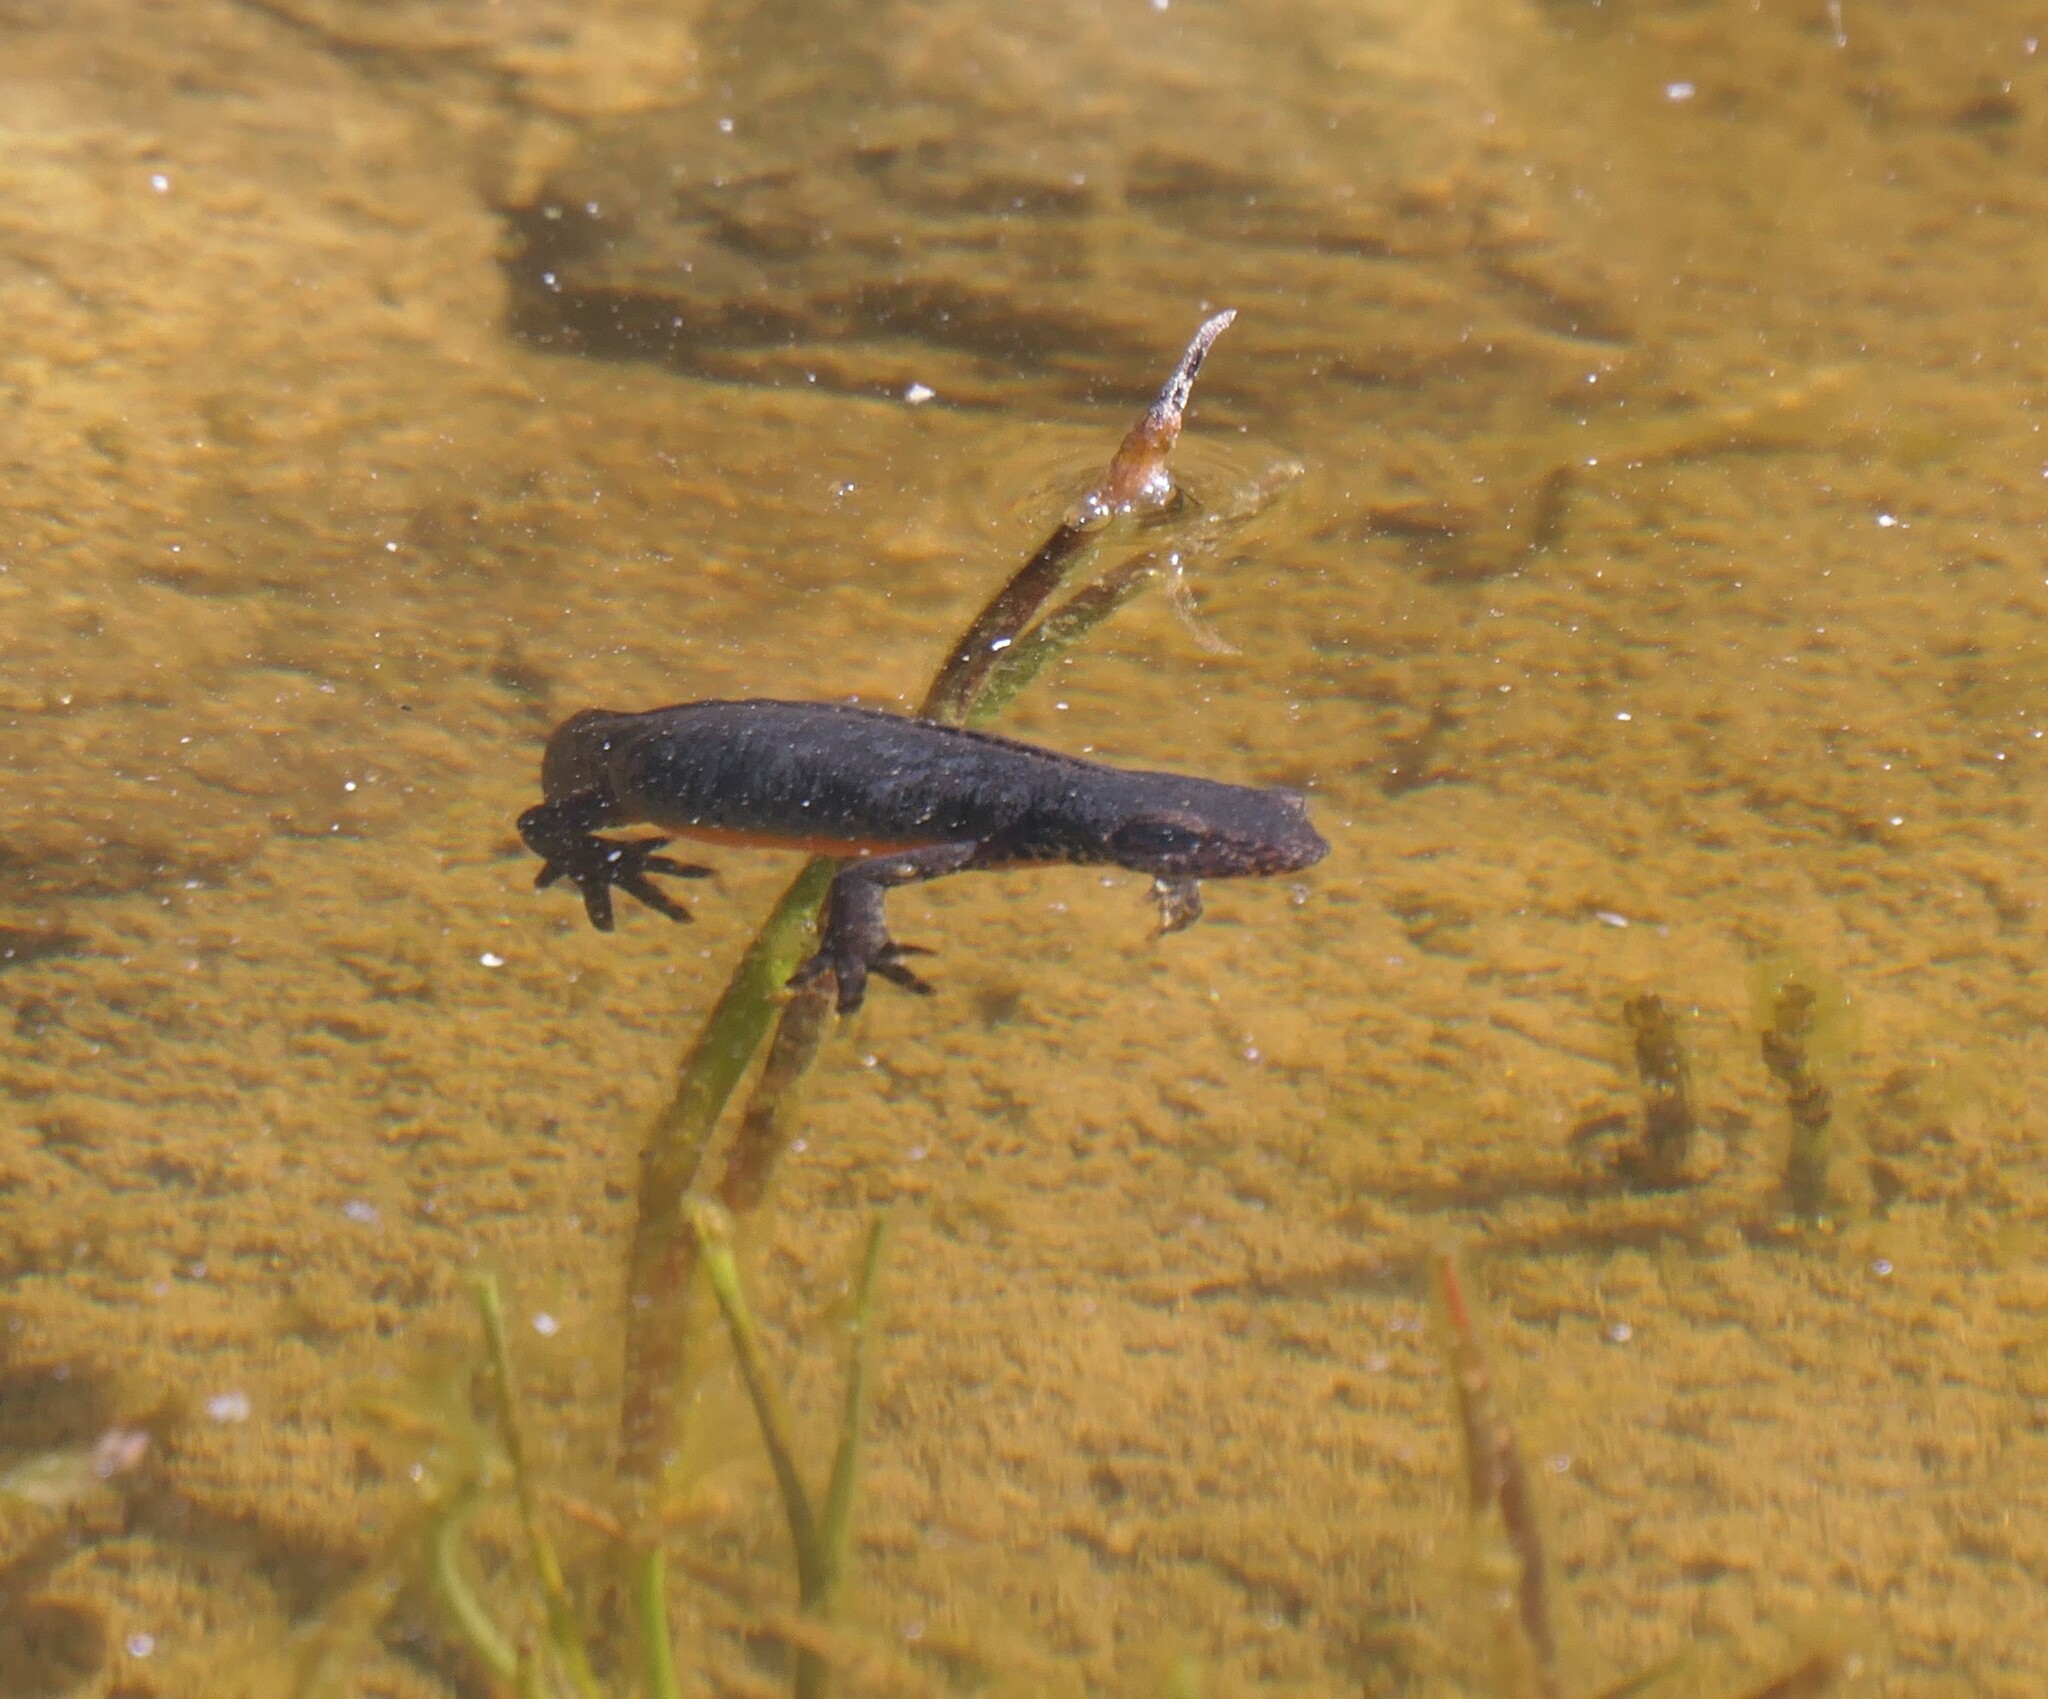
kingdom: Animalia
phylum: Chordata
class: Amphibia
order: Caudata
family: Salamandridae
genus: Ichthyosaura
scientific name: Ichthyosaura alpestris
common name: Alpine newt
